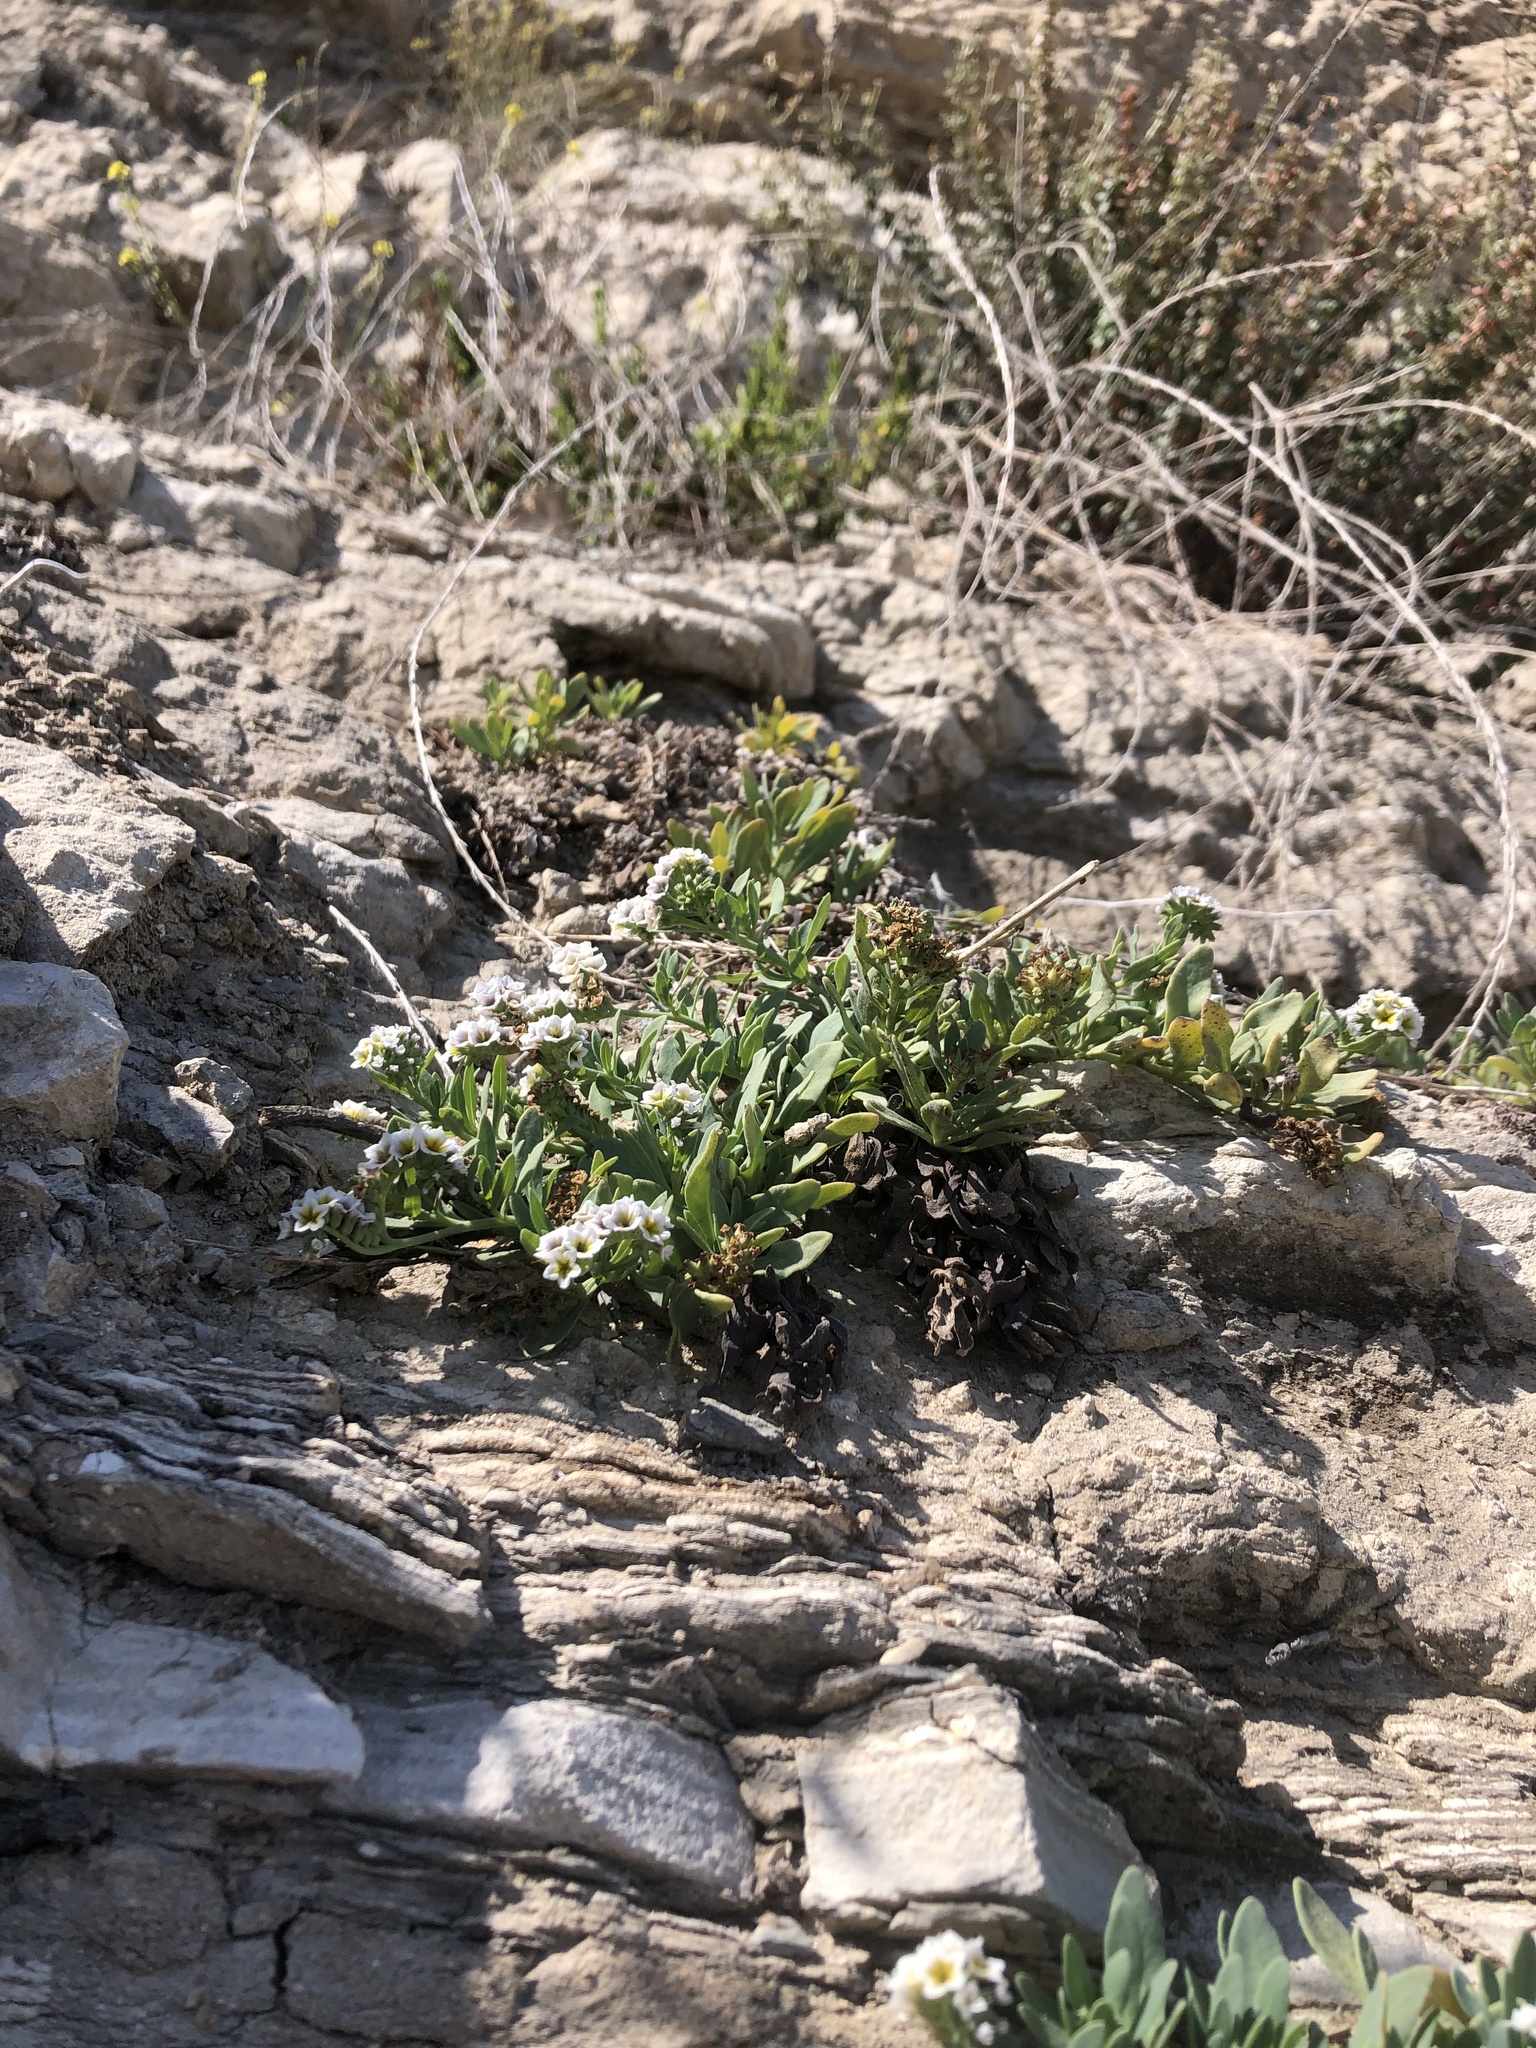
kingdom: Plantae
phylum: Tracheophyta
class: Magnoliopsida
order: Boraginales
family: Heliotropiaceae
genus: Heliotropium
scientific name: Heliotropium curassavicum
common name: Seaside heliotrope
